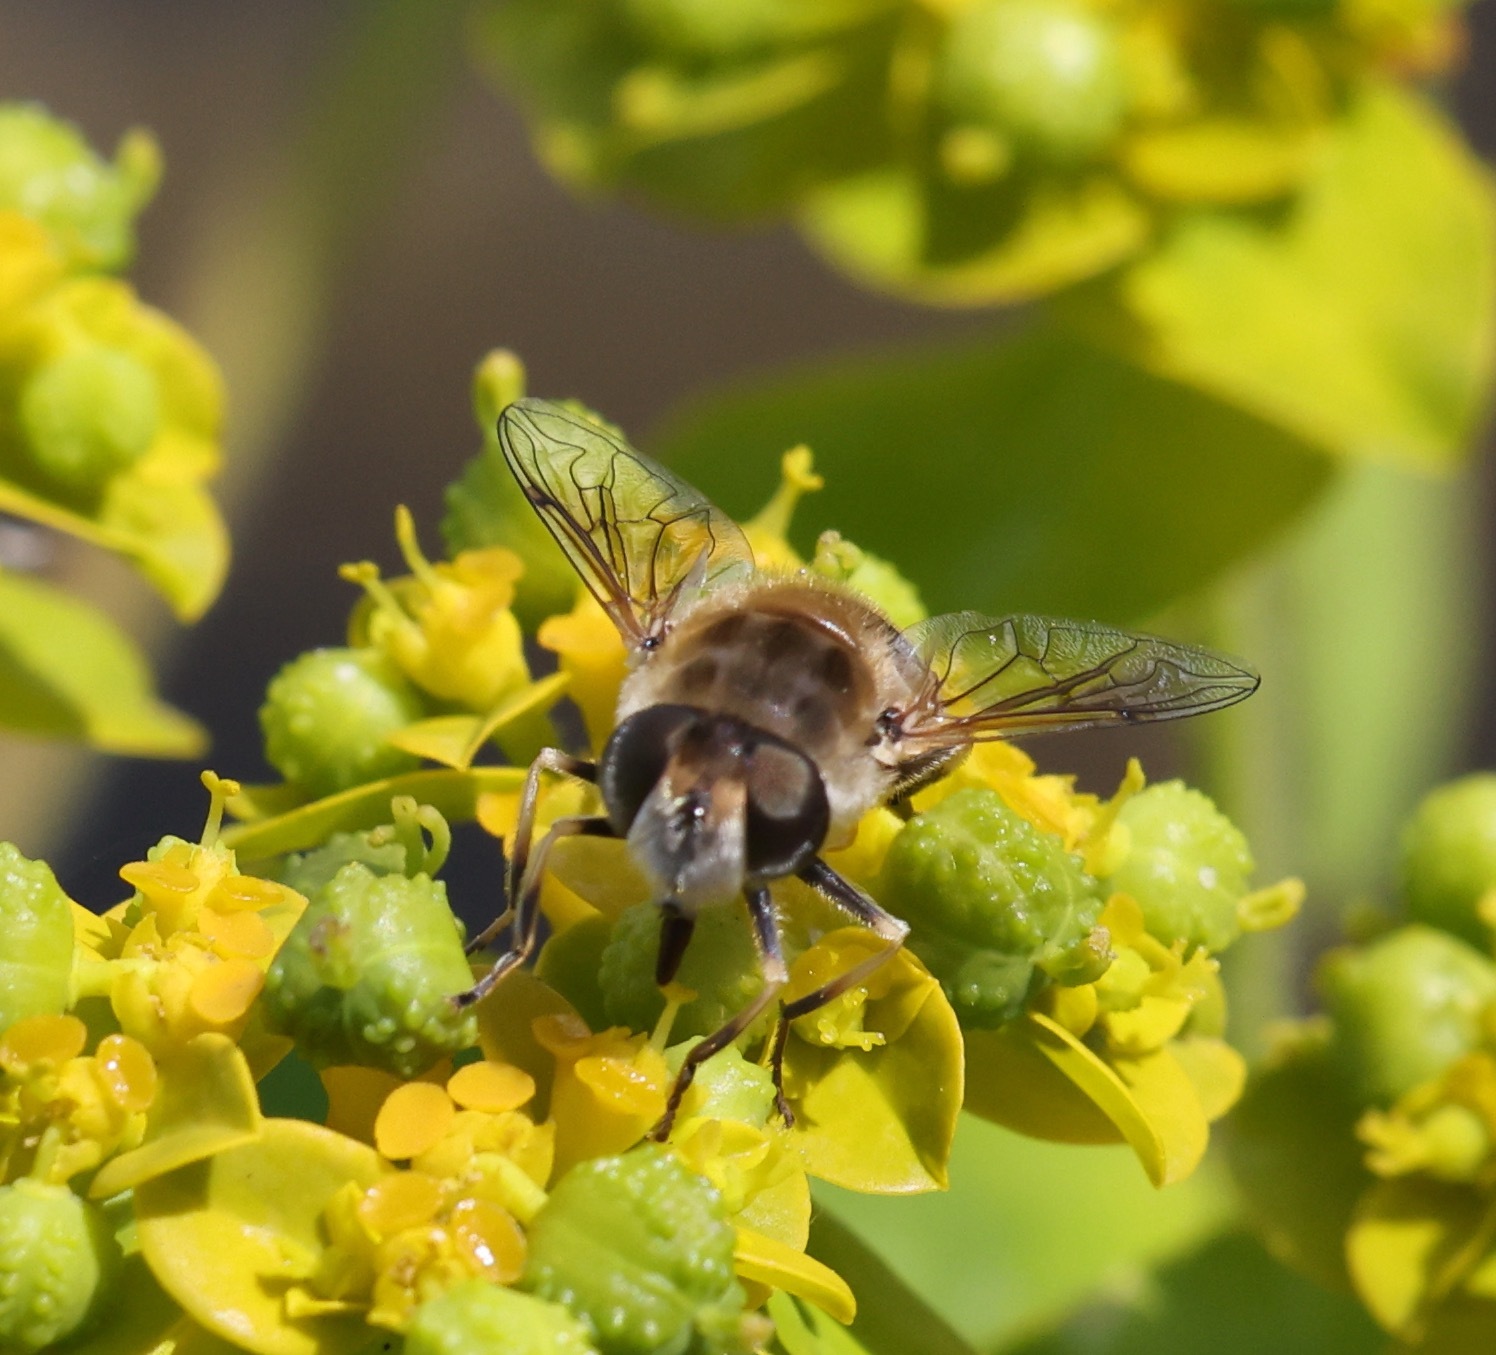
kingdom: Animalia
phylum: Arthropoda
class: Insecta
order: Diptera
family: Syrphidae
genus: Eristalis
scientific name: Eristalis arbustorum
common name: Hover fly
